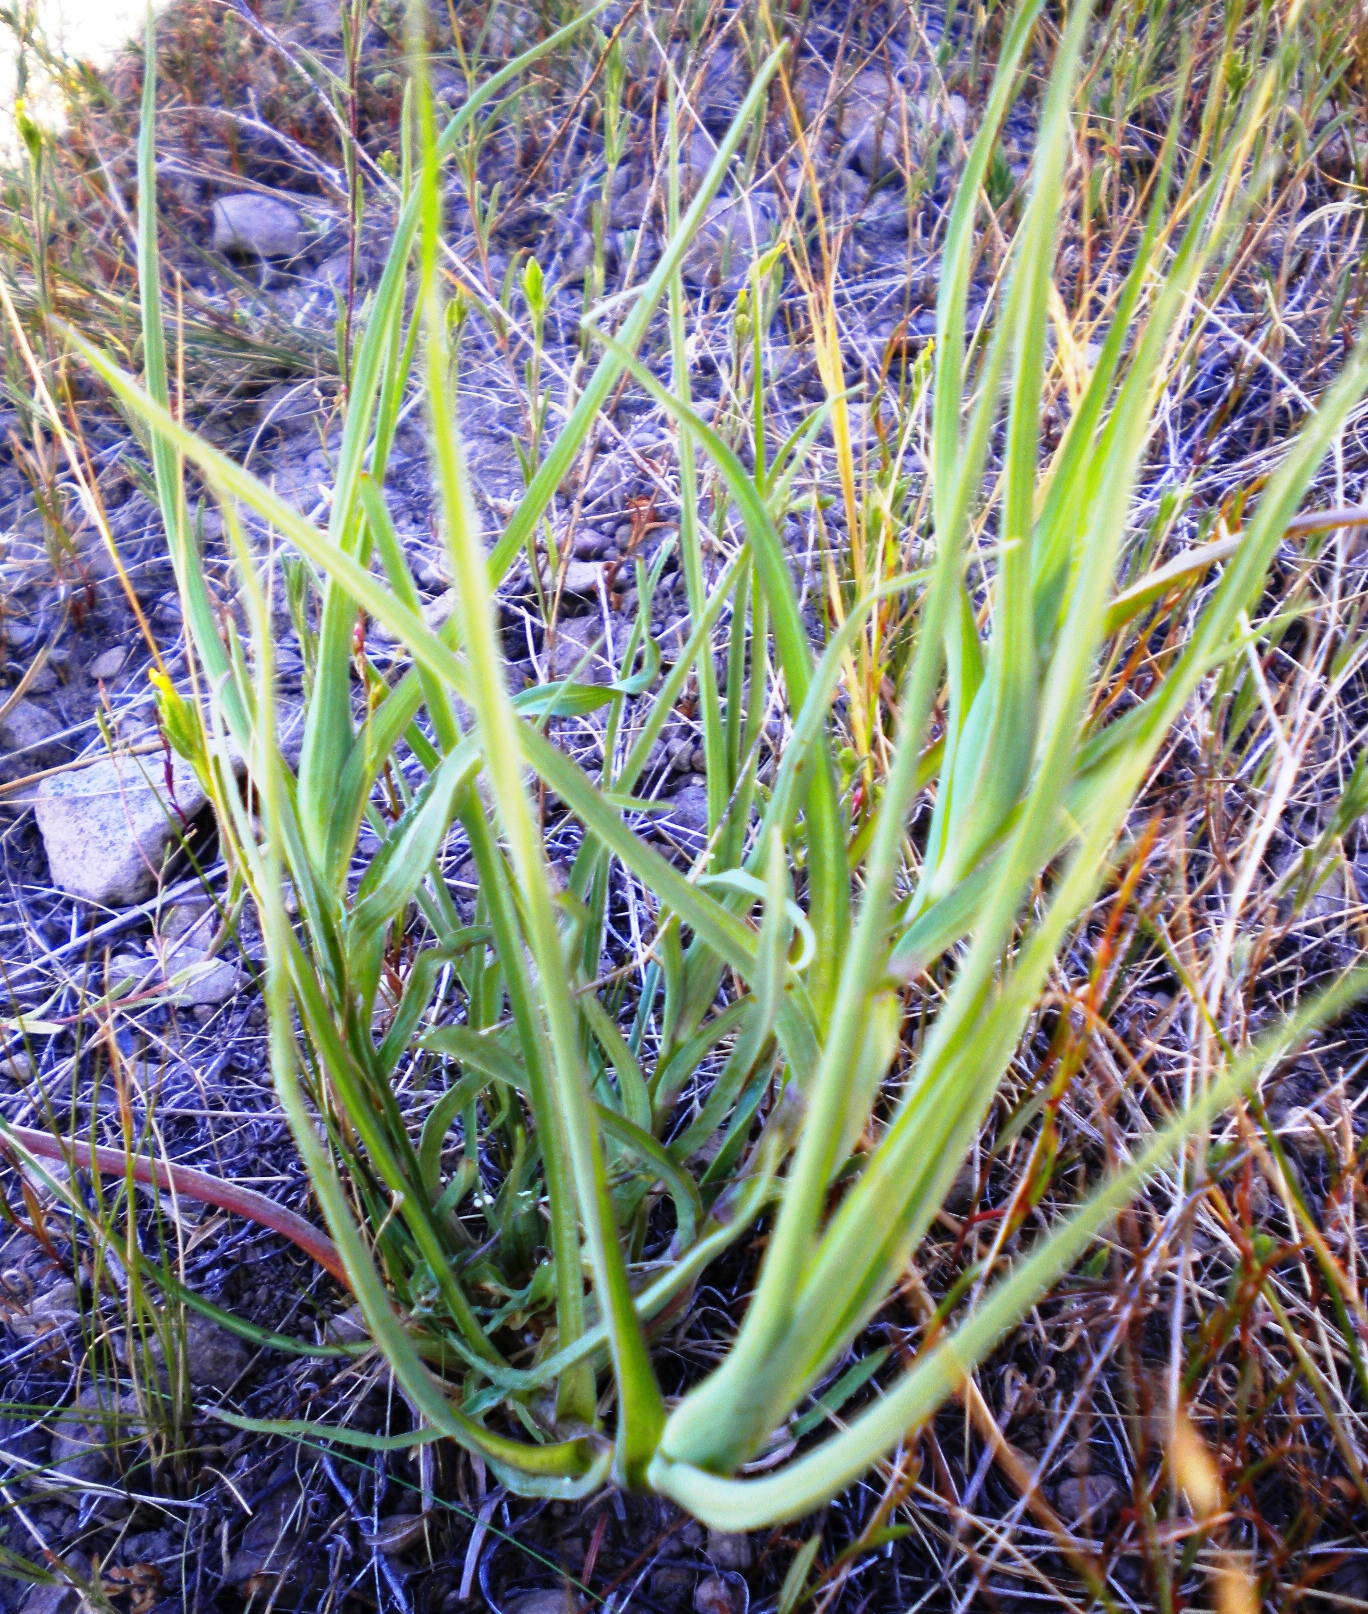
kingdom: Plantae
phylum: Tracheophyta
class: Magnoliopsida
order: Asterales
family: Asteraceae
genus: Tragopogon
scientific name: Tragopogon dubius
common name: Yellow salsify
